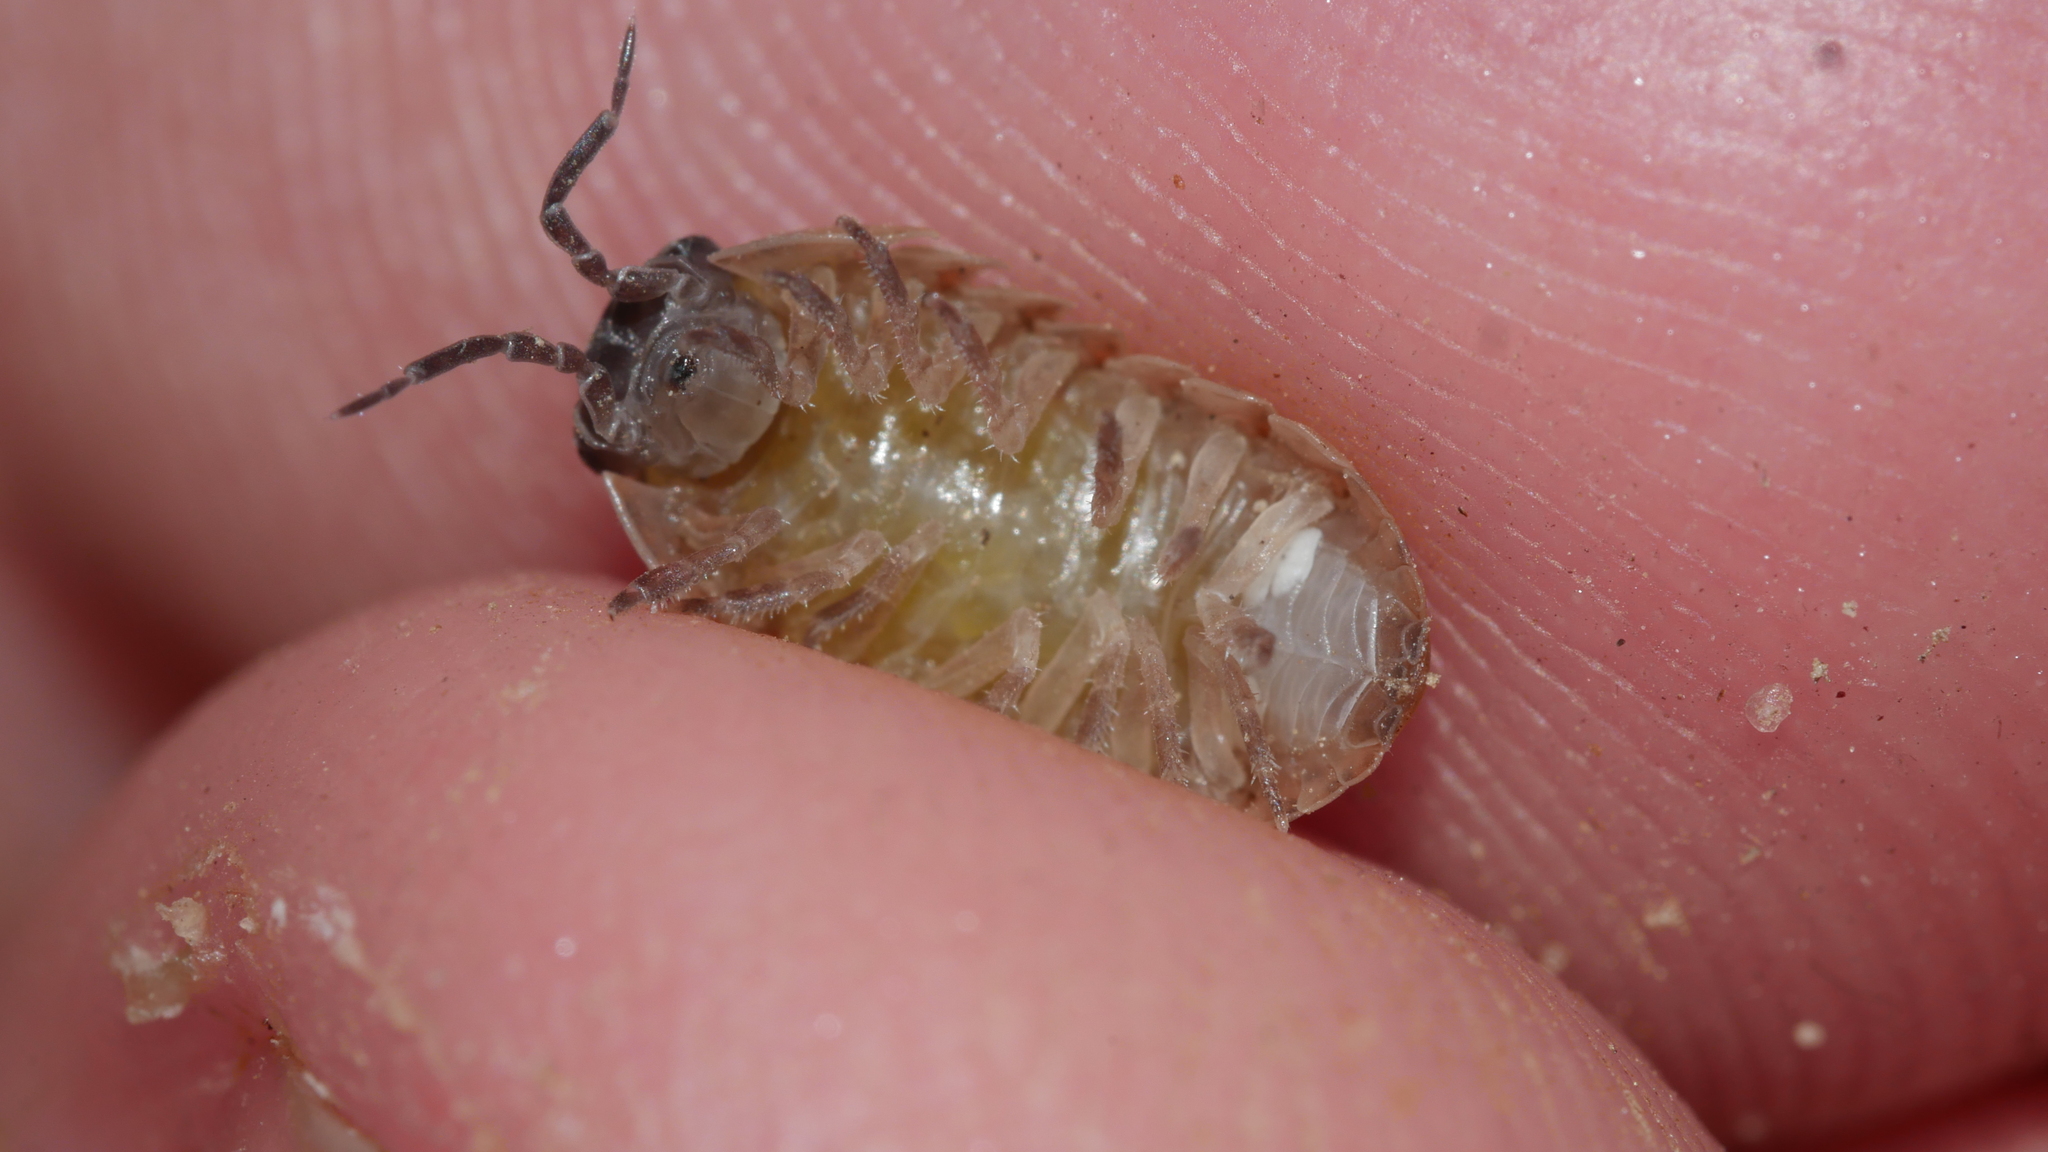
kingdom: Animalia
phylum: Arthropoda
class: Malacostraca
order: Isopoda
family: Armadillidiidae
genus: Armadillidium
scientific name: Armadillidium vulgare
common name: Common pill woodlouse
